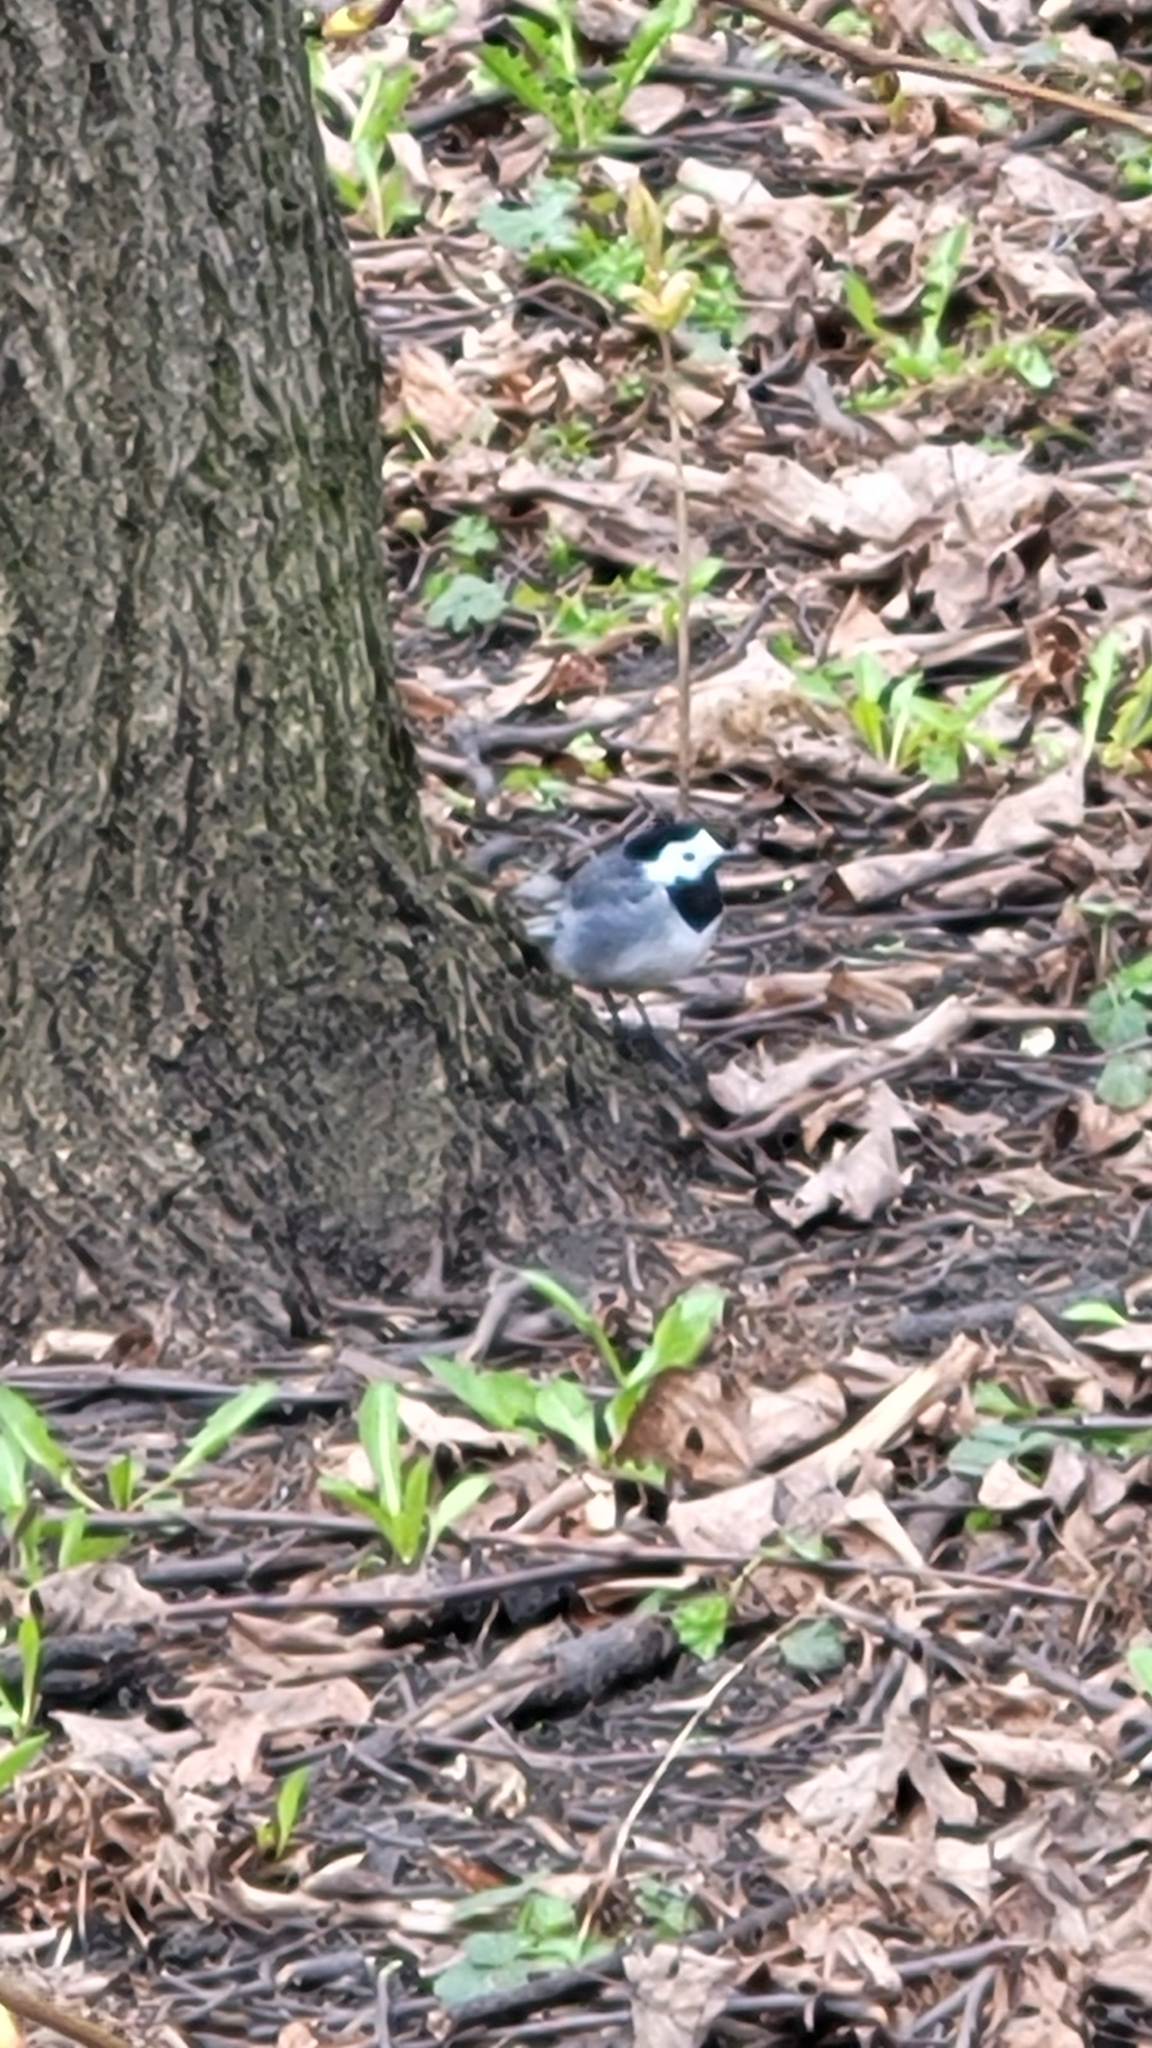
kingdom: Animalia
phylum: Chordata
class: Aves
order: Passeriformes
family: Motacillidae
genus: Motacilla
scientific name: Motacilla alba
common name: White wagtail
